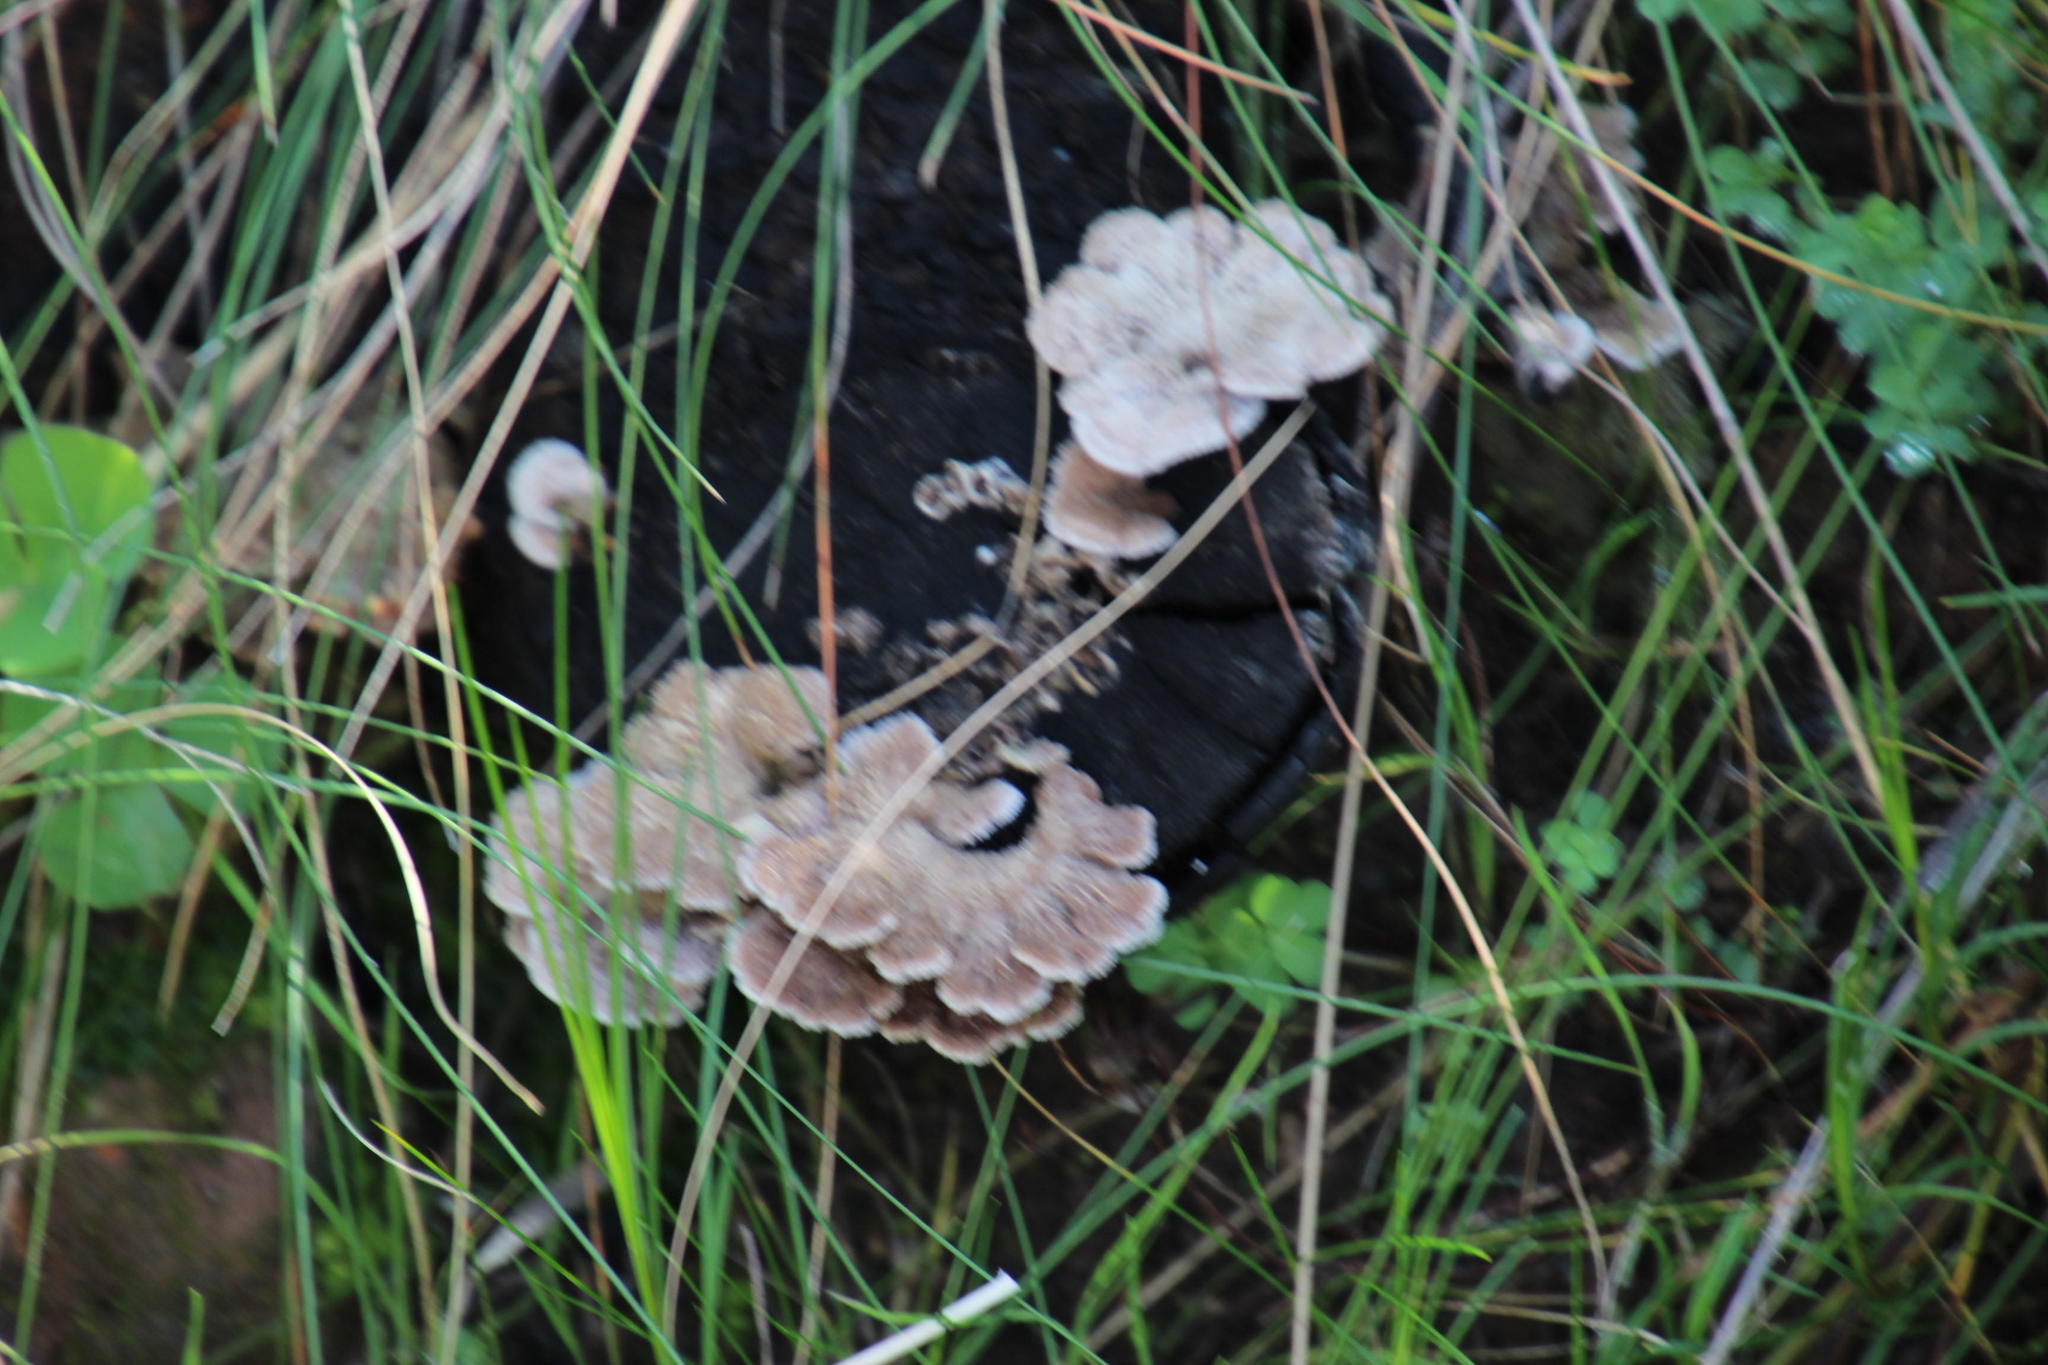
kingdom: Fungi
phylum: Basidiomycota
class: Agaricomycetes
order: Agaricales
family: Schizophyllaceae
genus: Schizophyllum
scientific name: Schizophyllum commune
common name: Common porecrust
